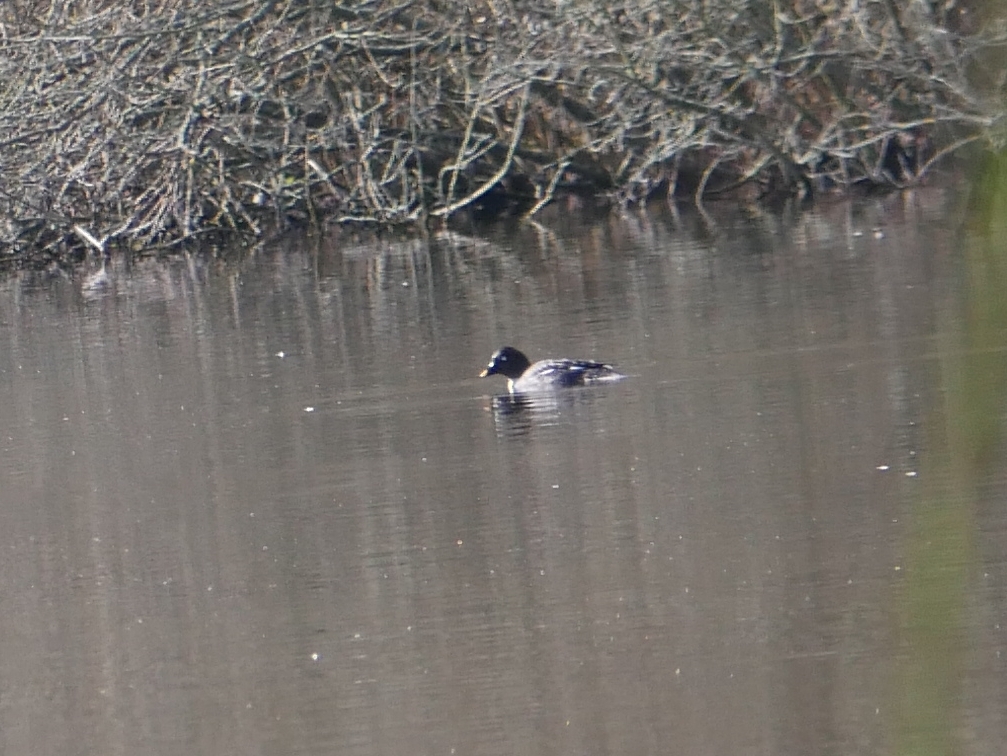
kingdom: Animalia
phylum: Chordata
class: Aves
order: Anseriformes
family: Anatidae
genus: Bucephala
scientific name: Bucephala clangula
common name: Common goldeneye
